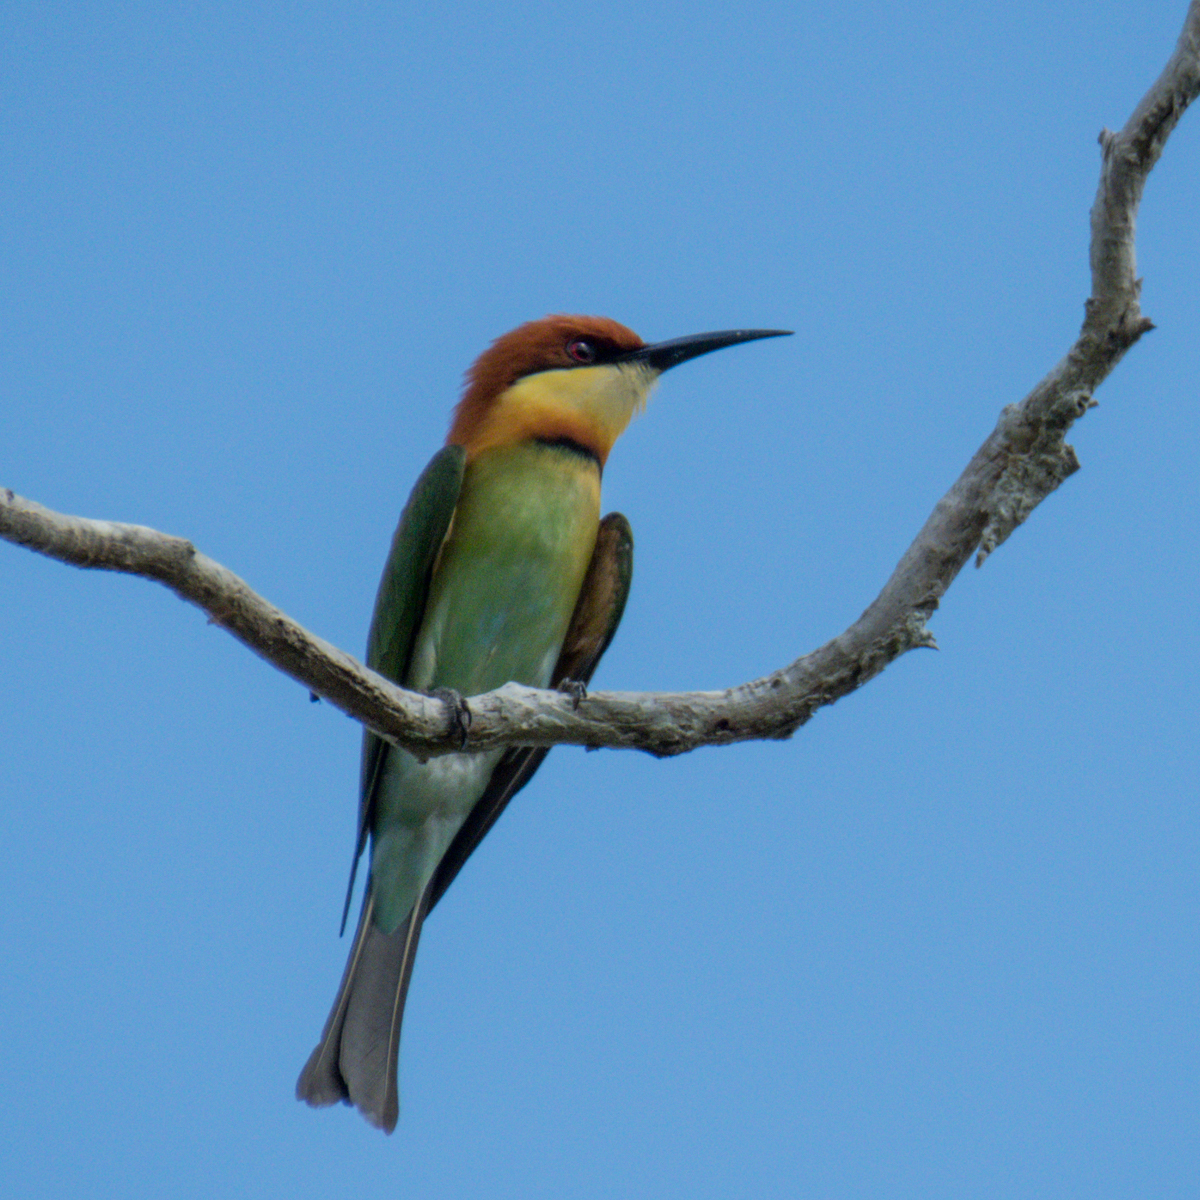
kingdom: Animalia
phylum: Chordata
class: Aves
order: Coraciiformes
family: Meropidae
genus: Merops
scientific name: Merops leschenaulti
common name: Chestnut-headed bee-eater
